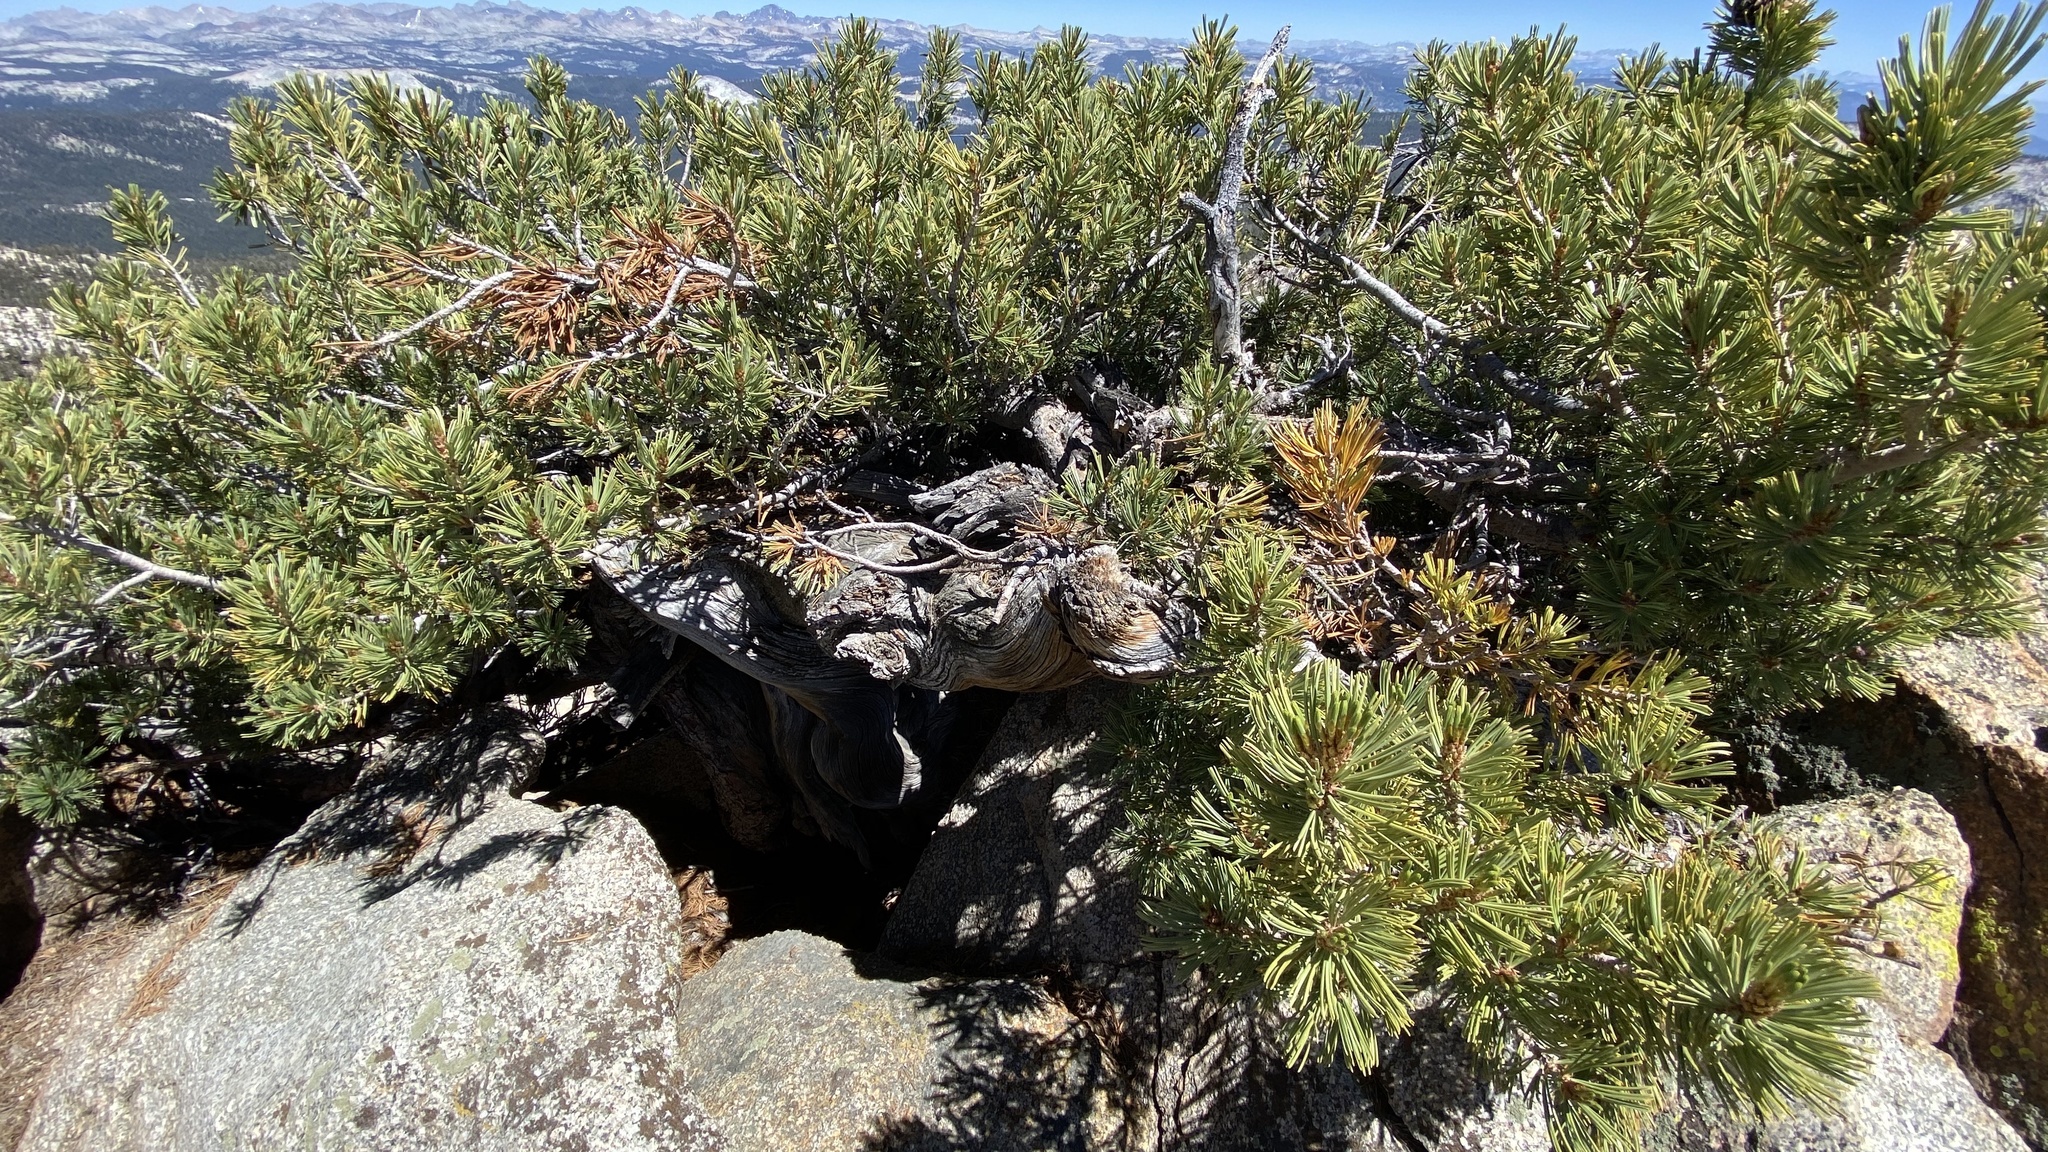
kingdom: Plantae
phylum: Tracheophyta
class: Pinopsida
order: Pinales
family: Pinaceae
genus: Pinus
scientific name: Pinus albicaulis
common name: Whitebark pine
